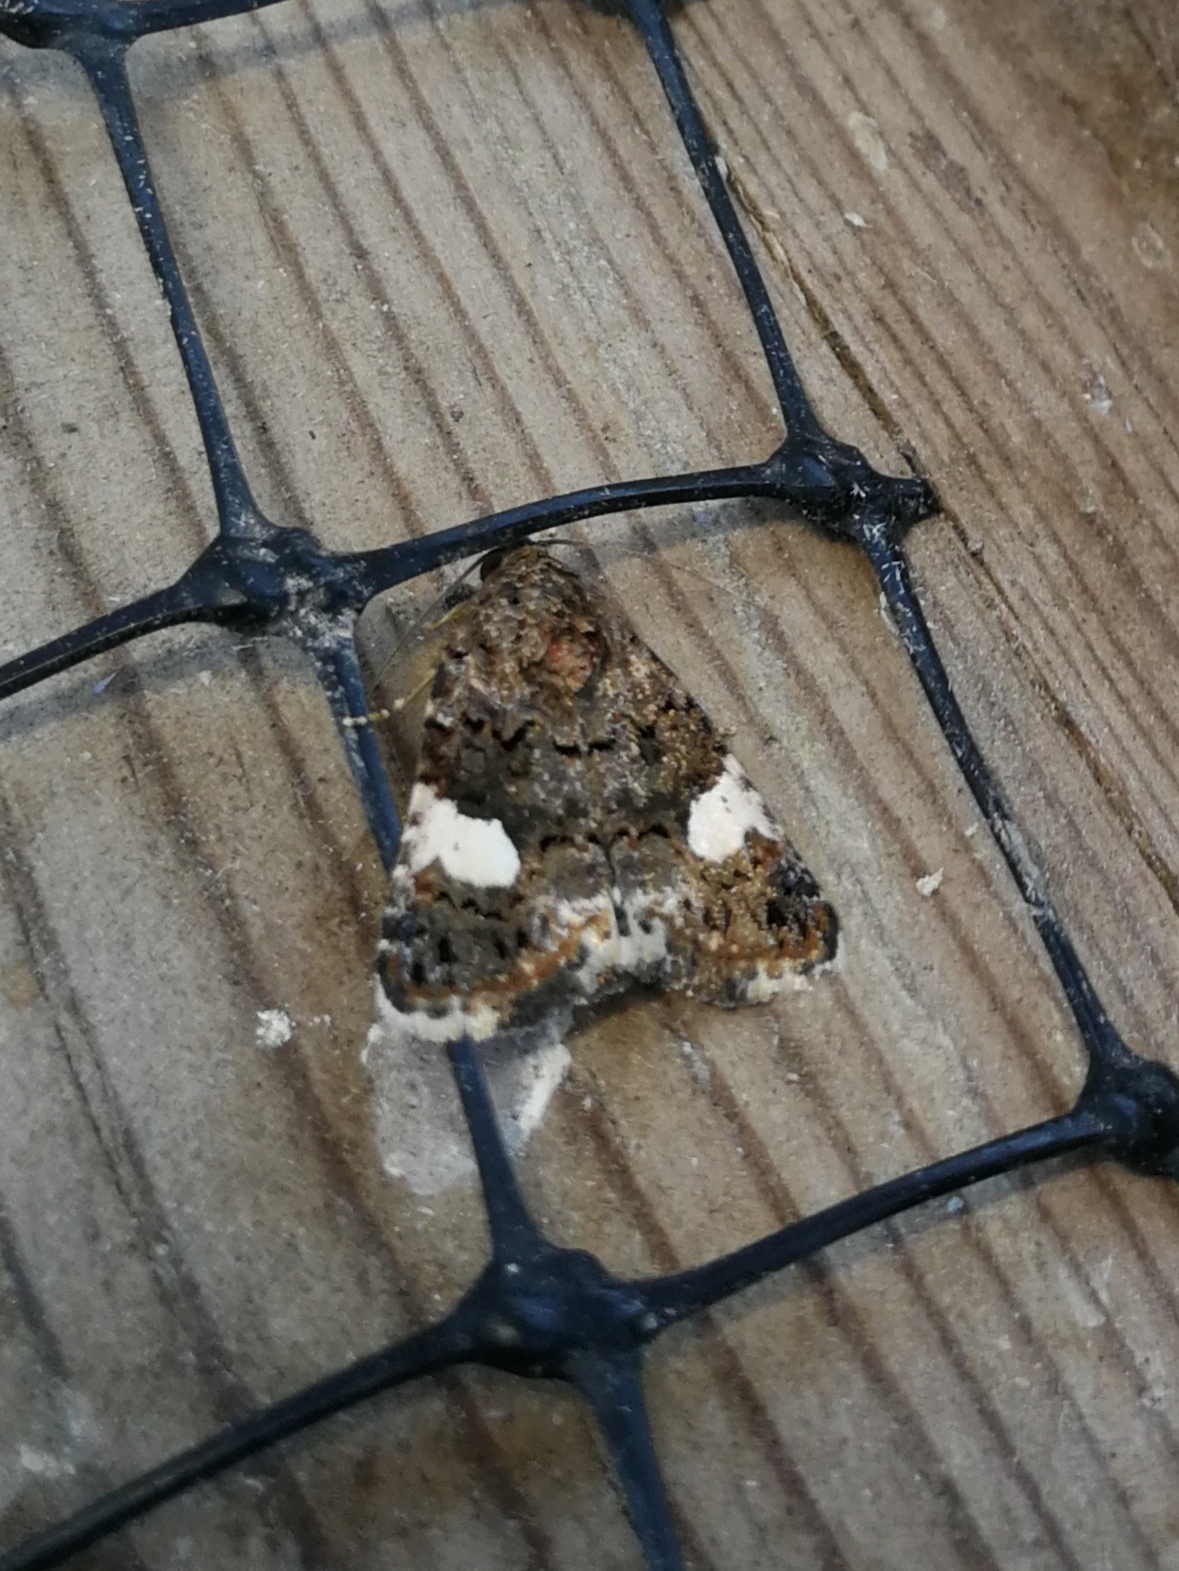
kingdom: Animalia
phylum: Arthropoda
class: Insecta
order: Lepidoptera
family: Erebidae
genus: Tyta
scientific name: Tyta luctuosa
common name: Four-spotted
